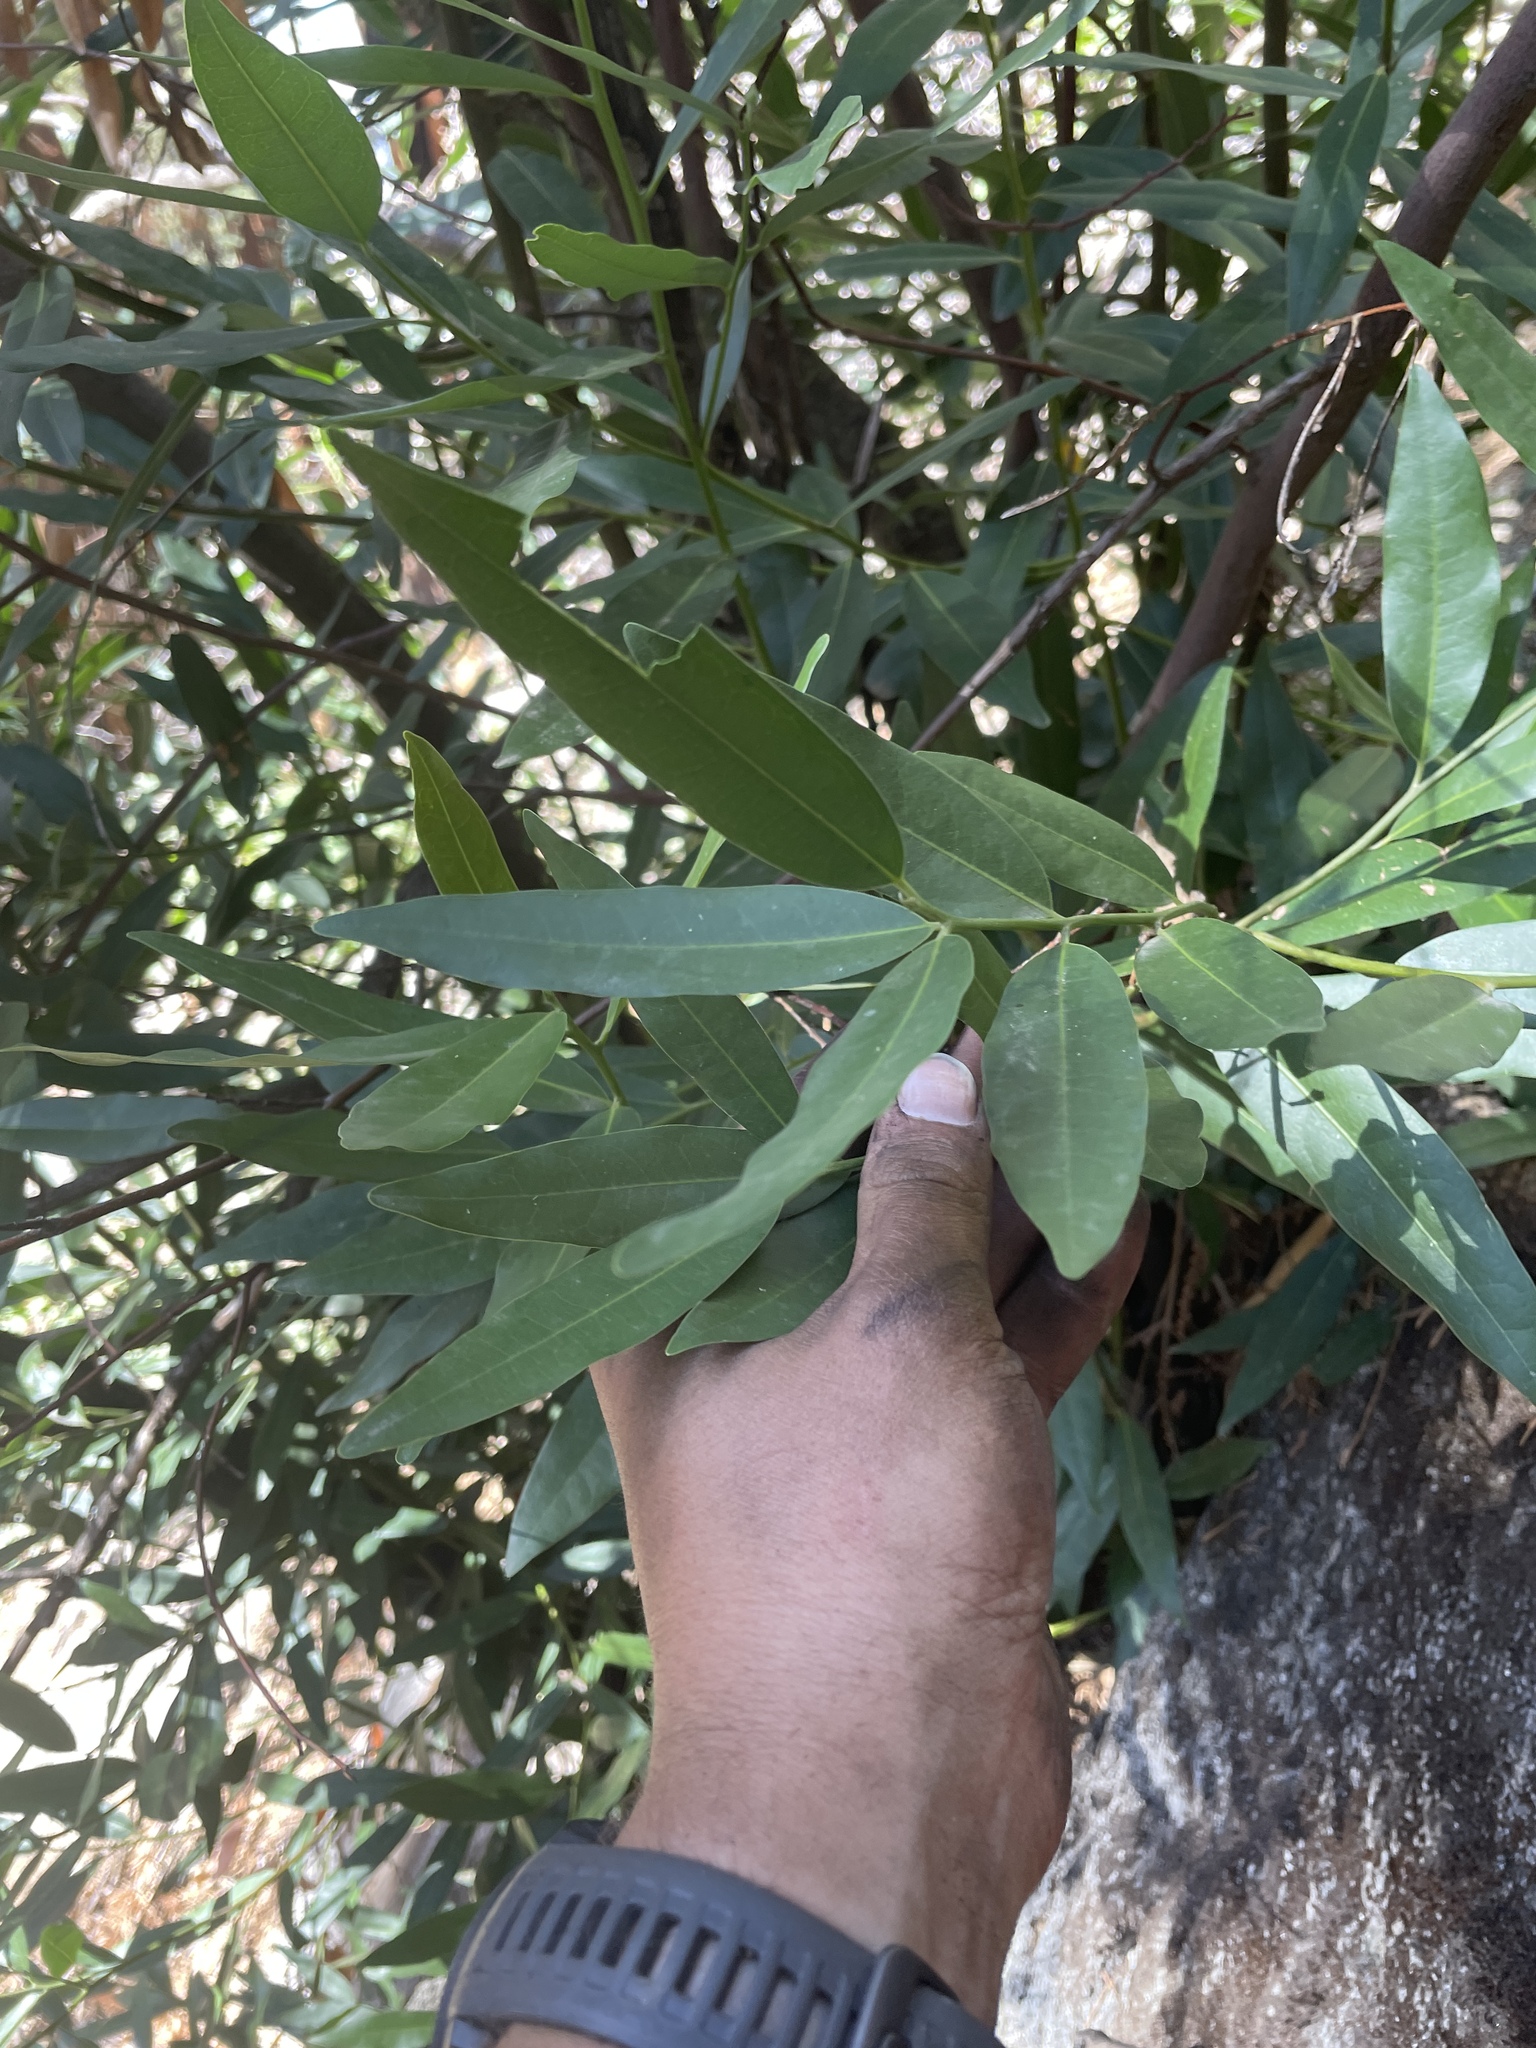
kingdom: Plantae
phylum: Tracheophyta
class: Magnoliopsida
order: Laurales
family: Lauraceae
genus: Umbellularia
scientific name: Umbellularia californica
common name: California bay
